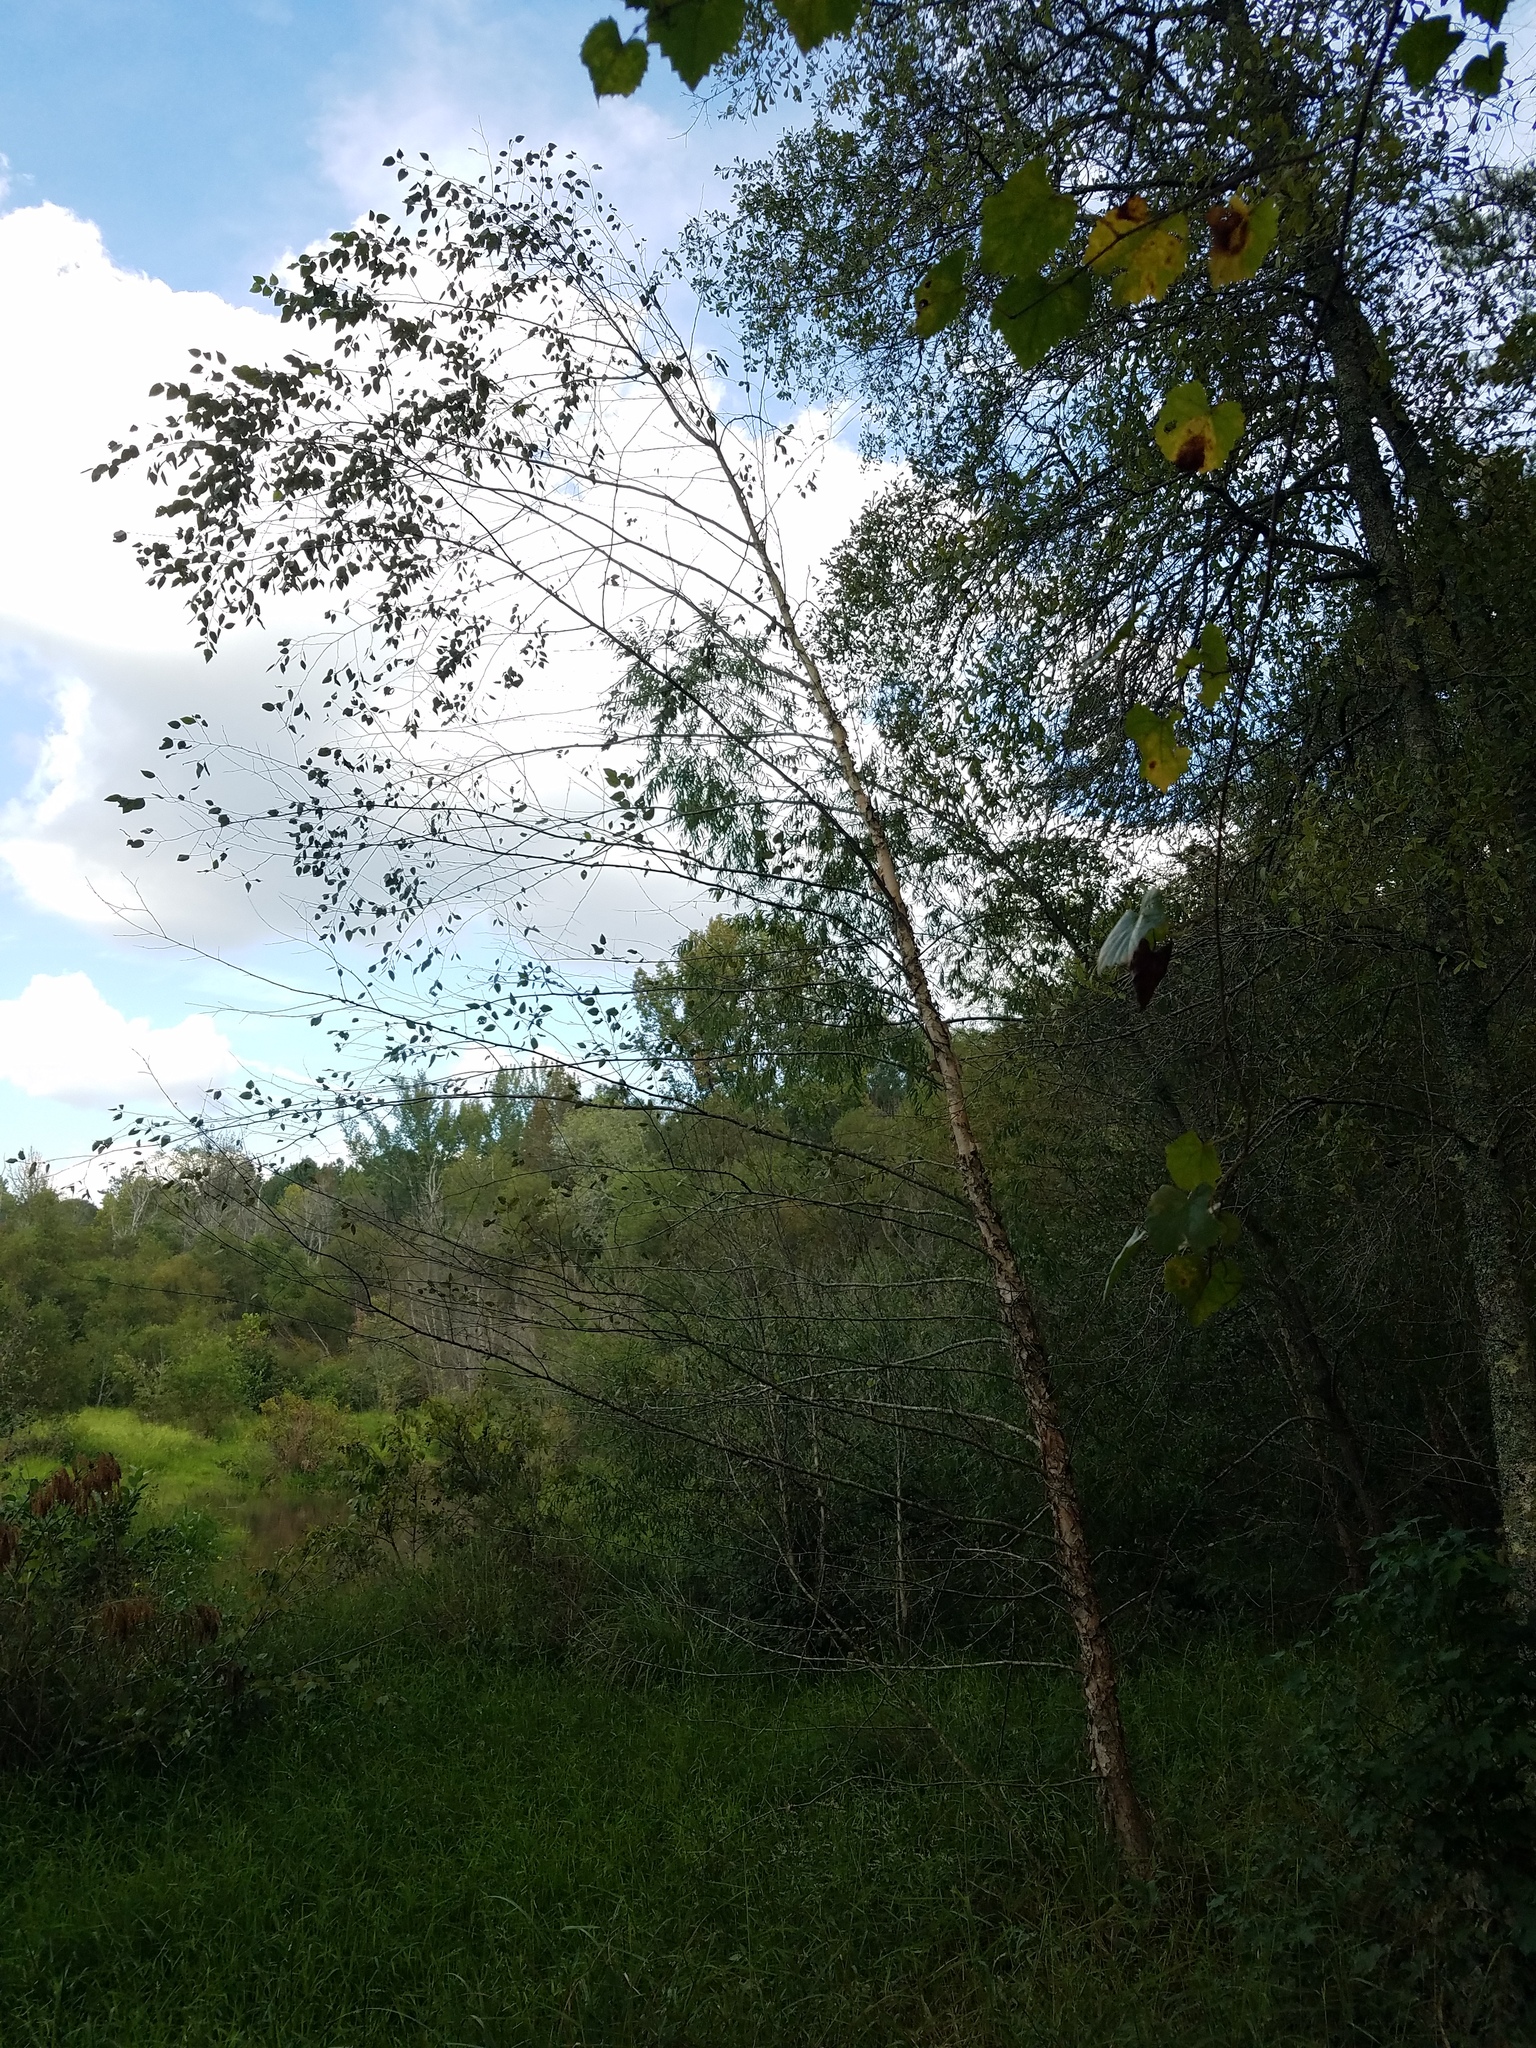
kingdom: Plantae
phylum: Tracheophyta
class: Magnoliopsida
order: Fagales
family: Betulaceae
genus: Betula
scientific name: Betula nigra
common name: Black birch
